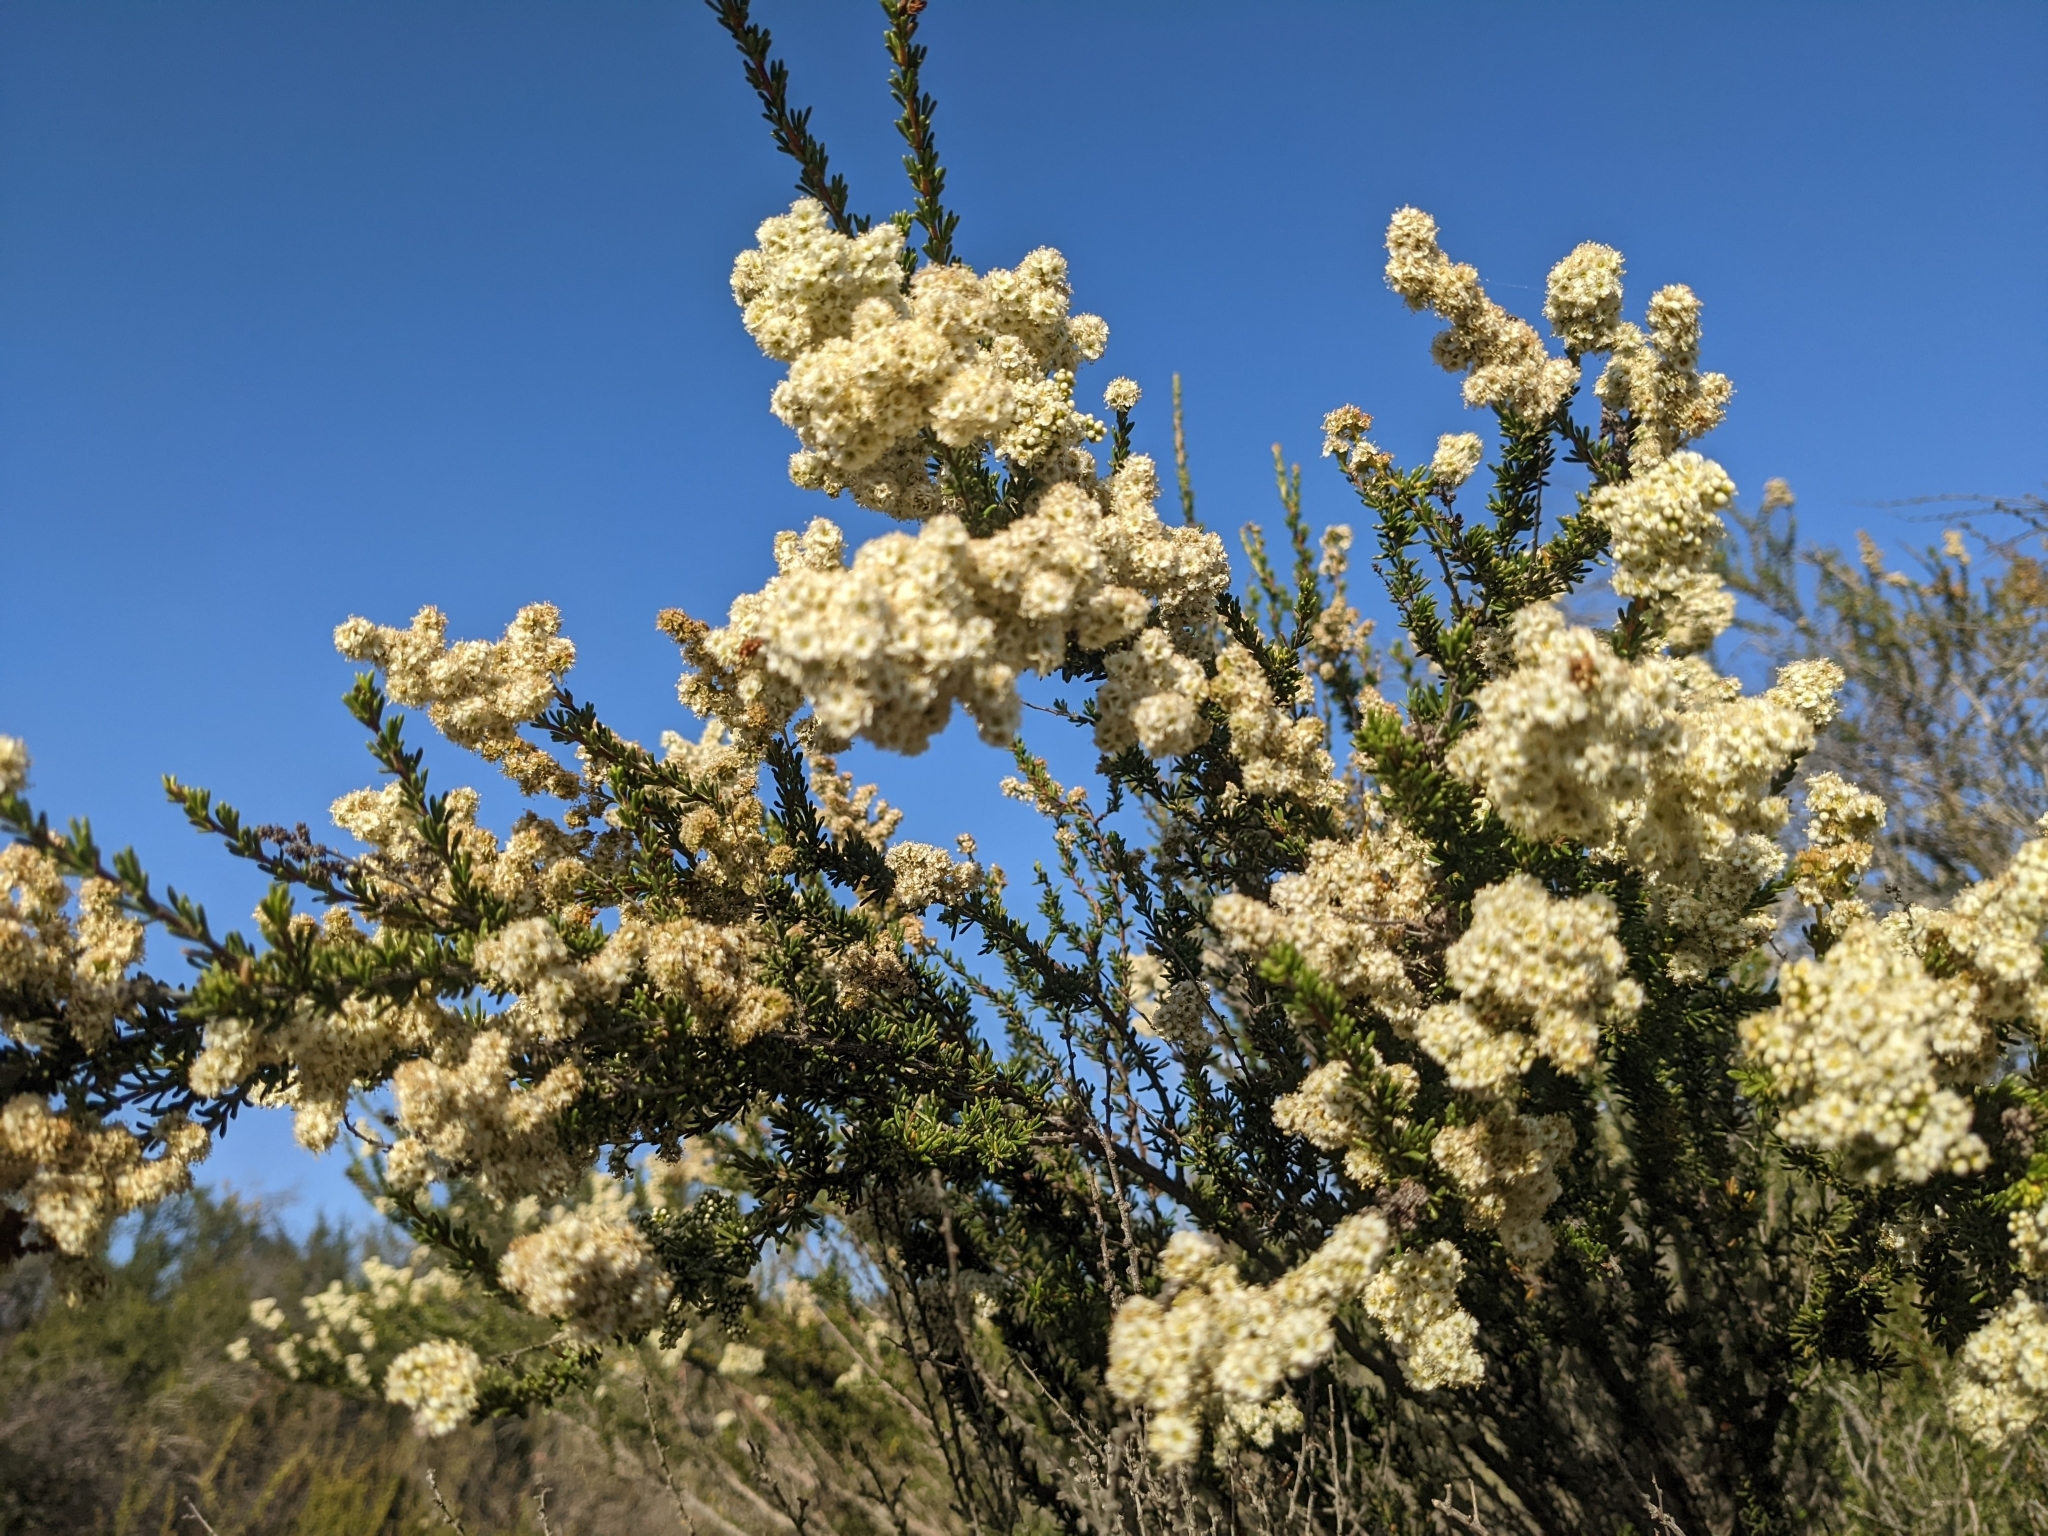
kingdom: Plantae
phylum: Tracheophyta
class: Magnoliopsida
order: Rosales
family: Rosaceae
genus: Adenostoma
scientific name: Adenostoma fasciculatum
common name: Chamise
